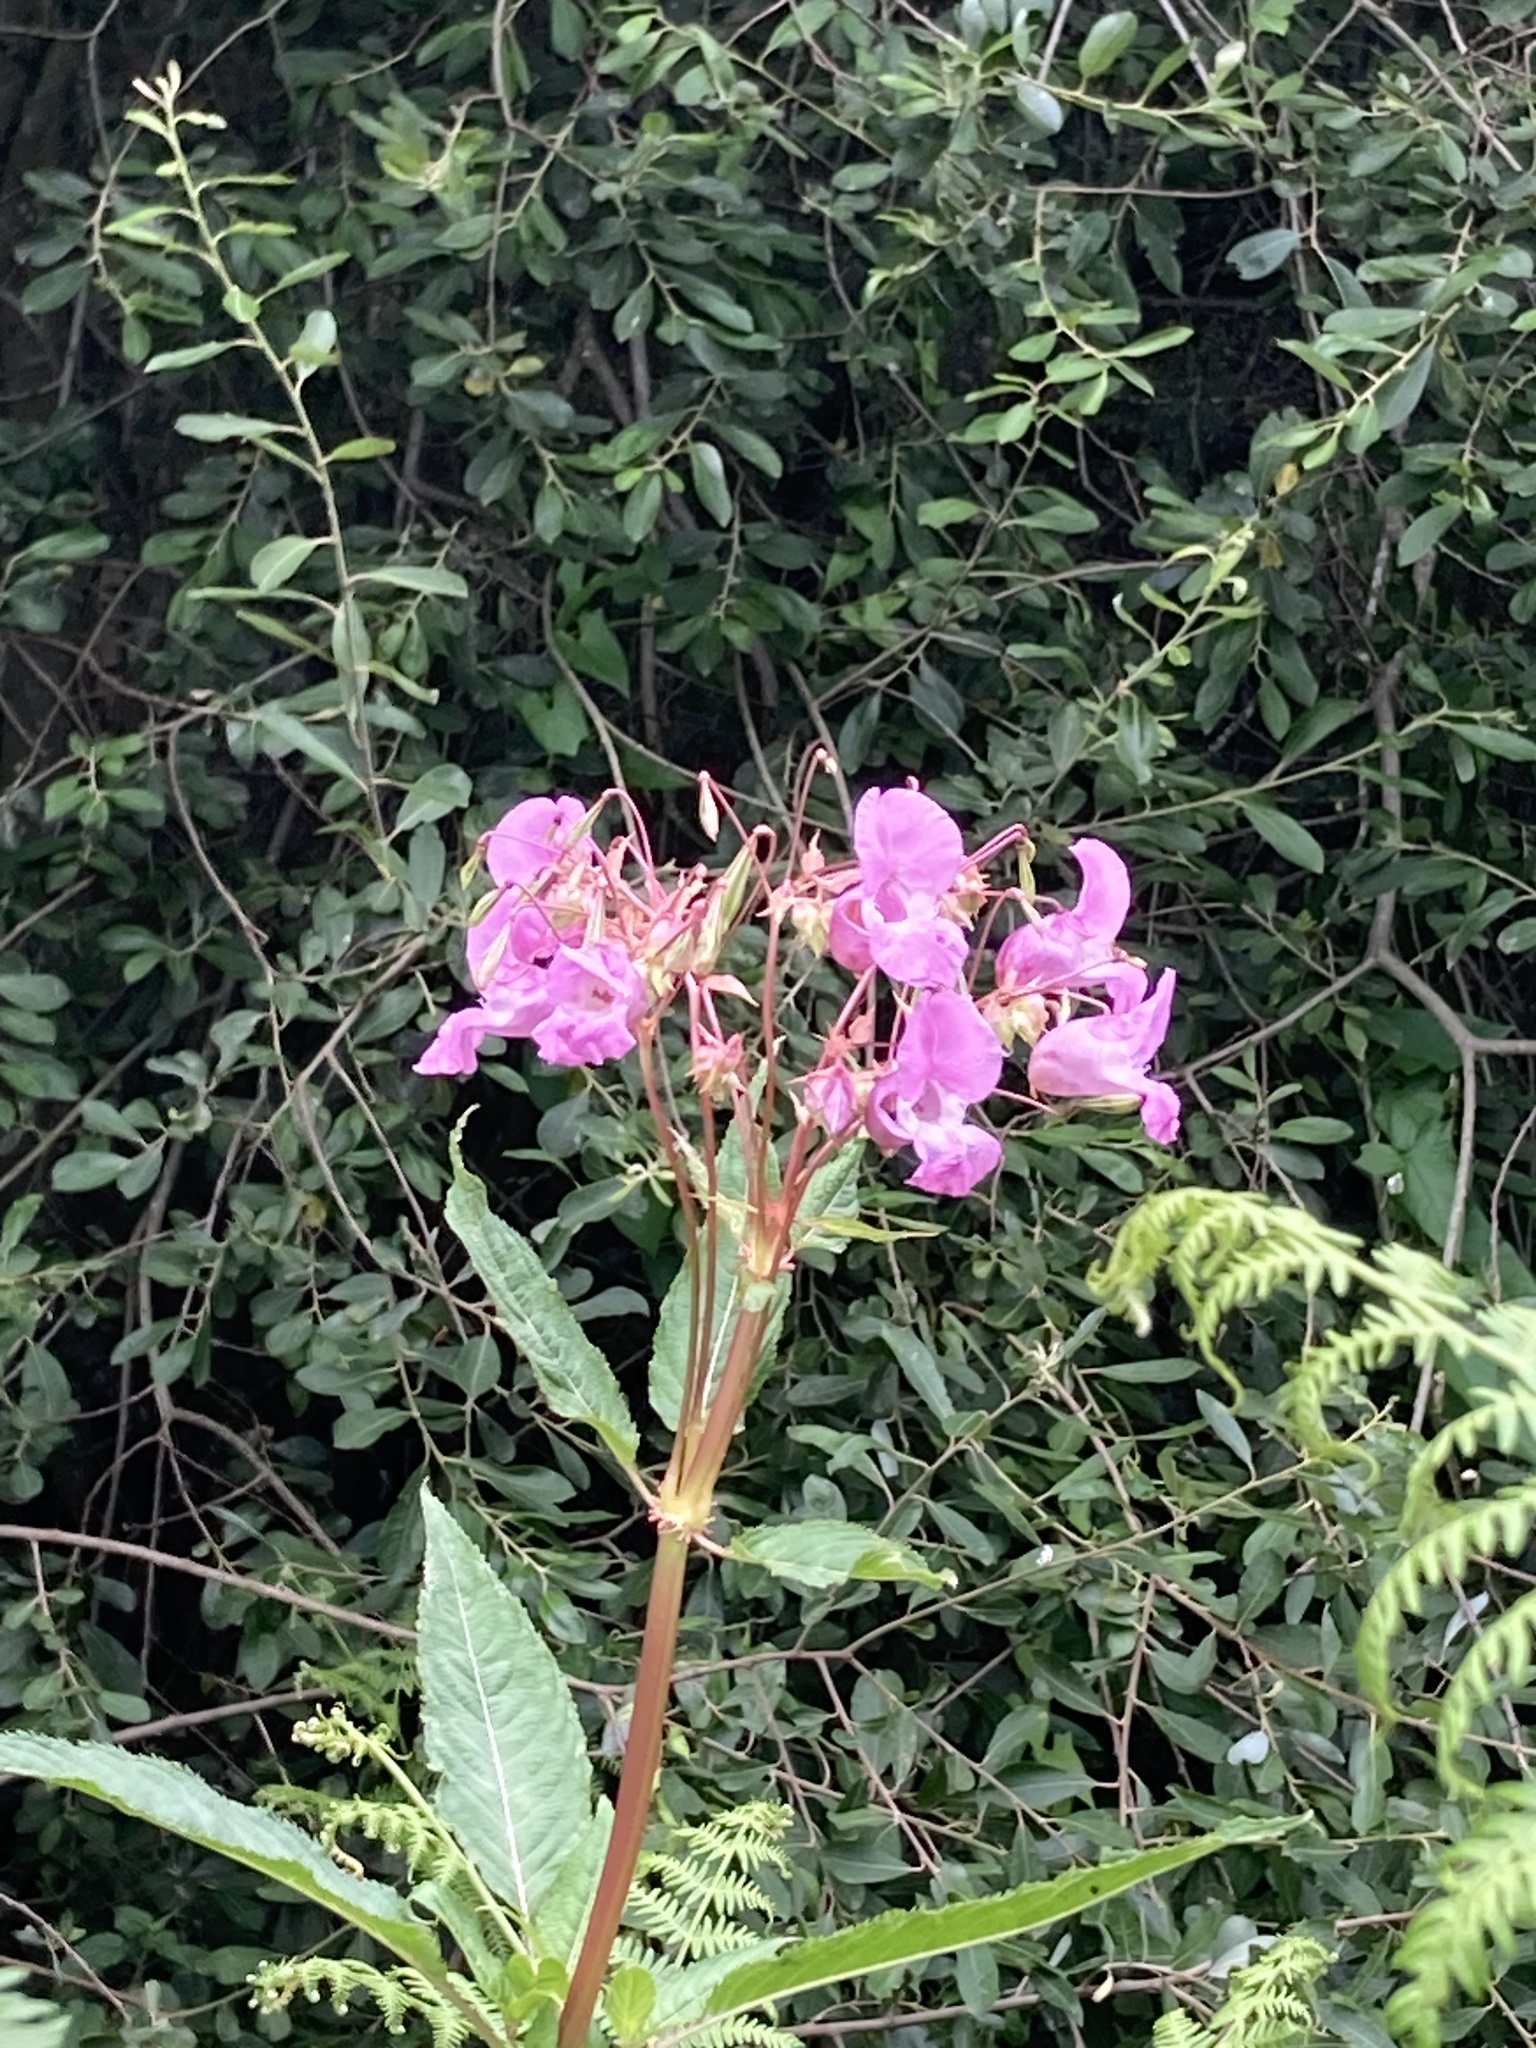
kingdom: Plantae
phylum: Tracheophyta
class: Magnoliopsida
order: Ericales
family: Balsaminaceae
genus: Impatiens
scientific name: Impatiens glandulifera
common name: Himalayan balsam
